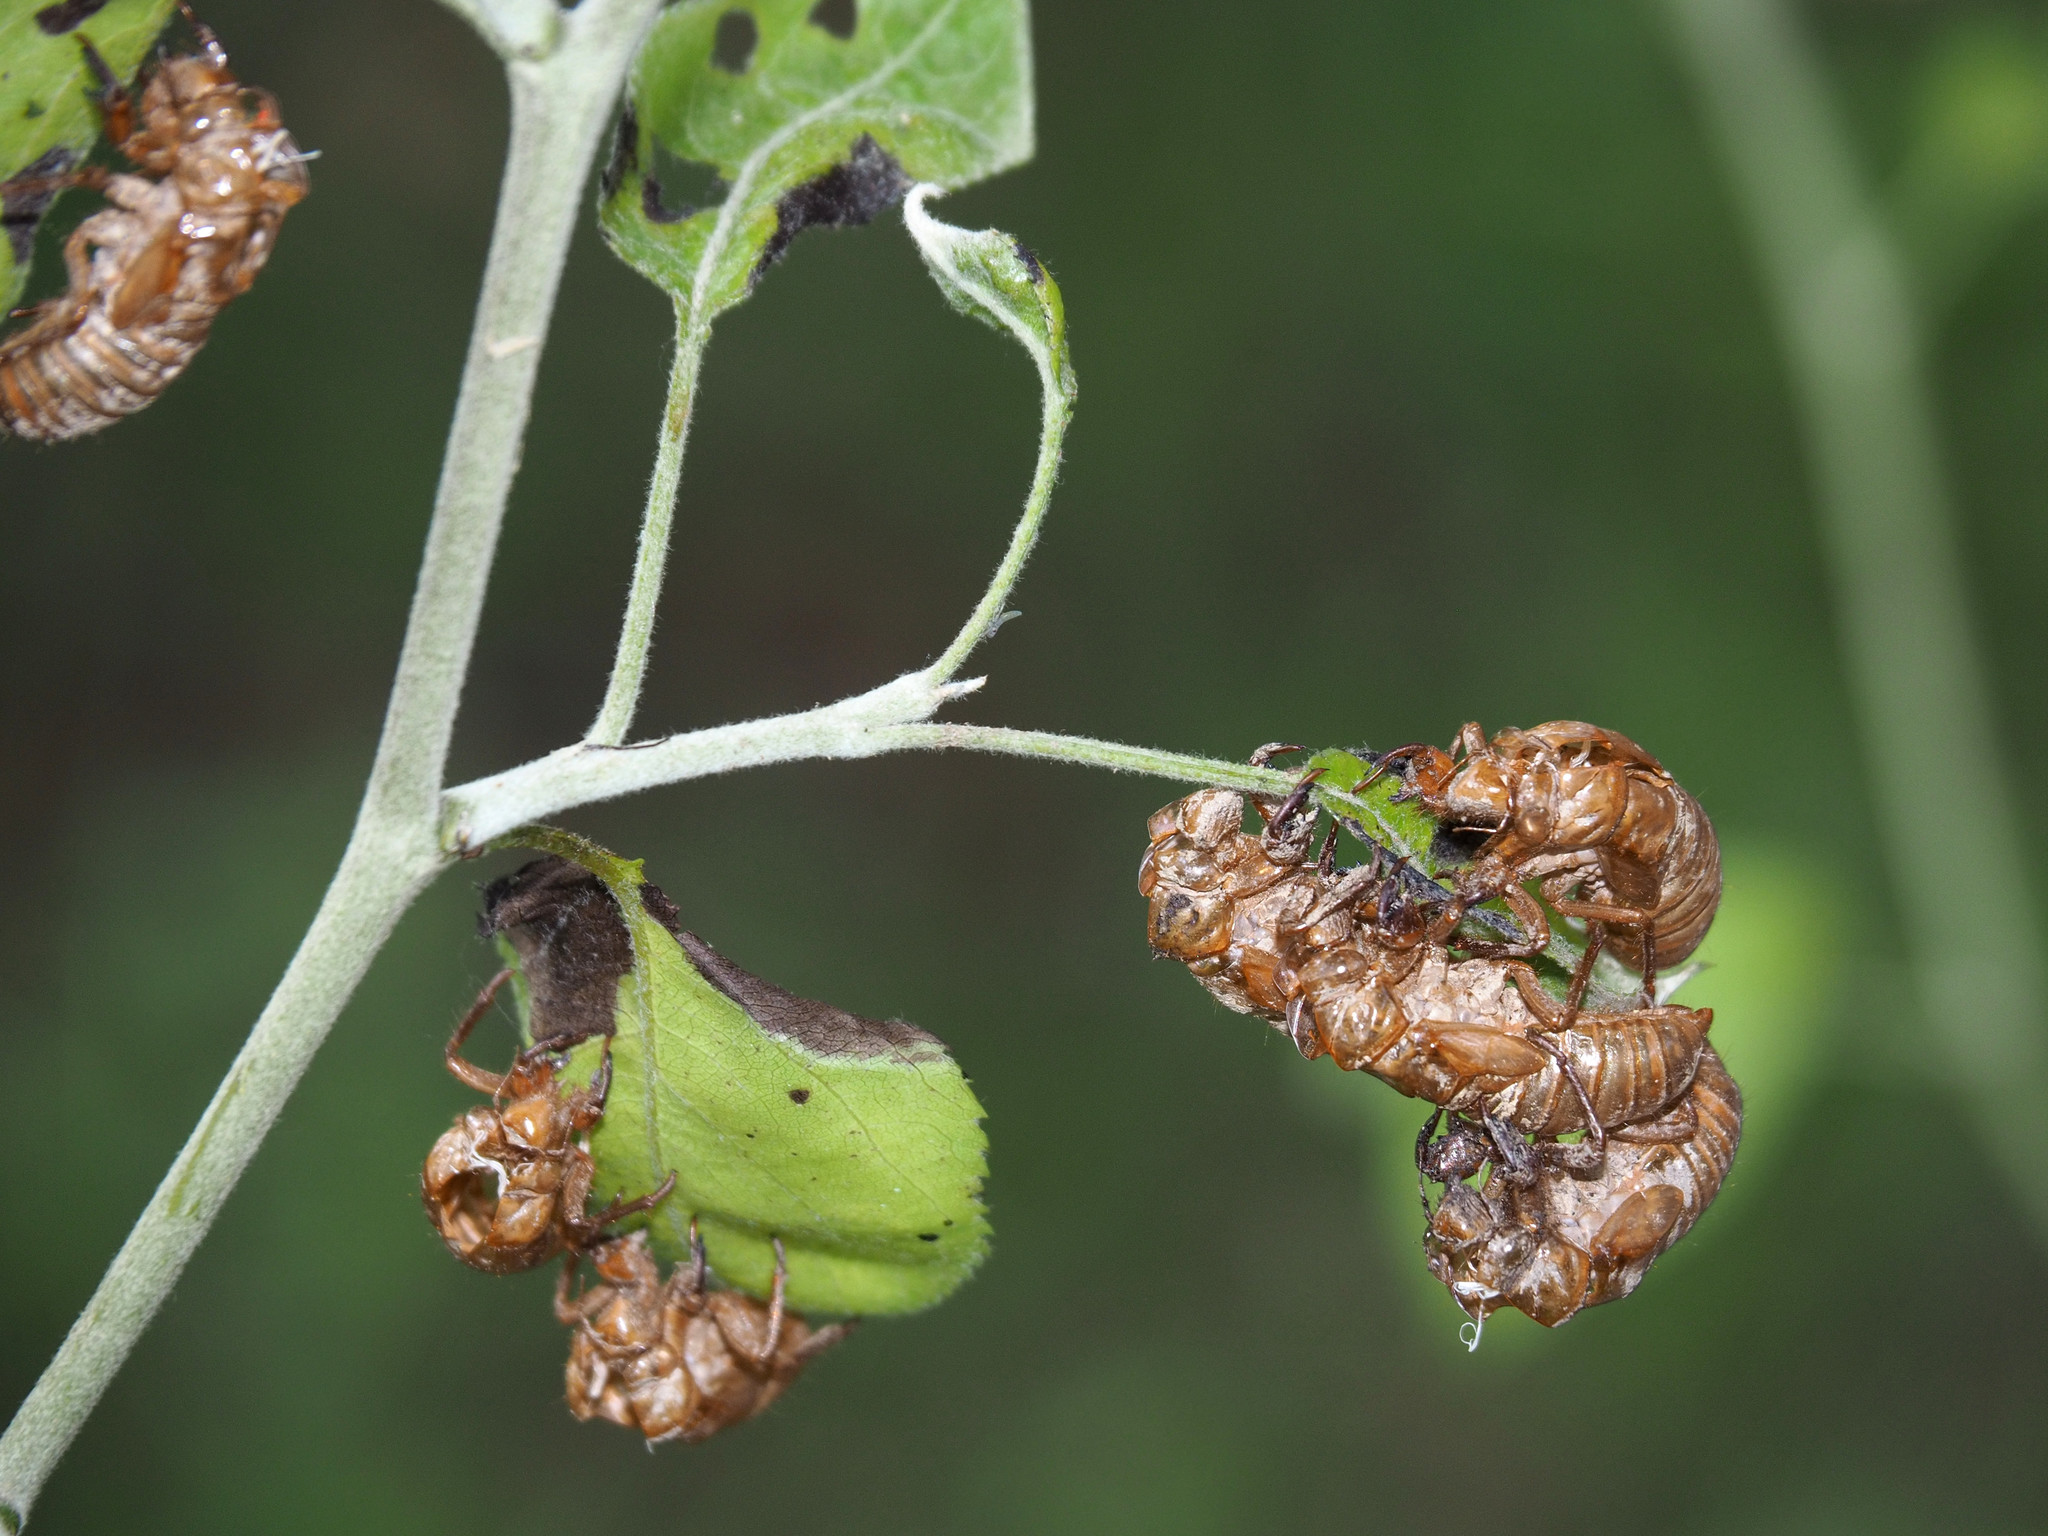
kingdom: Animalia
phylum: Arthropoda
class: Insecta
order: Hemiptera
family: Cicadidae
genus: Magicicada
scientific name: Magicicada
